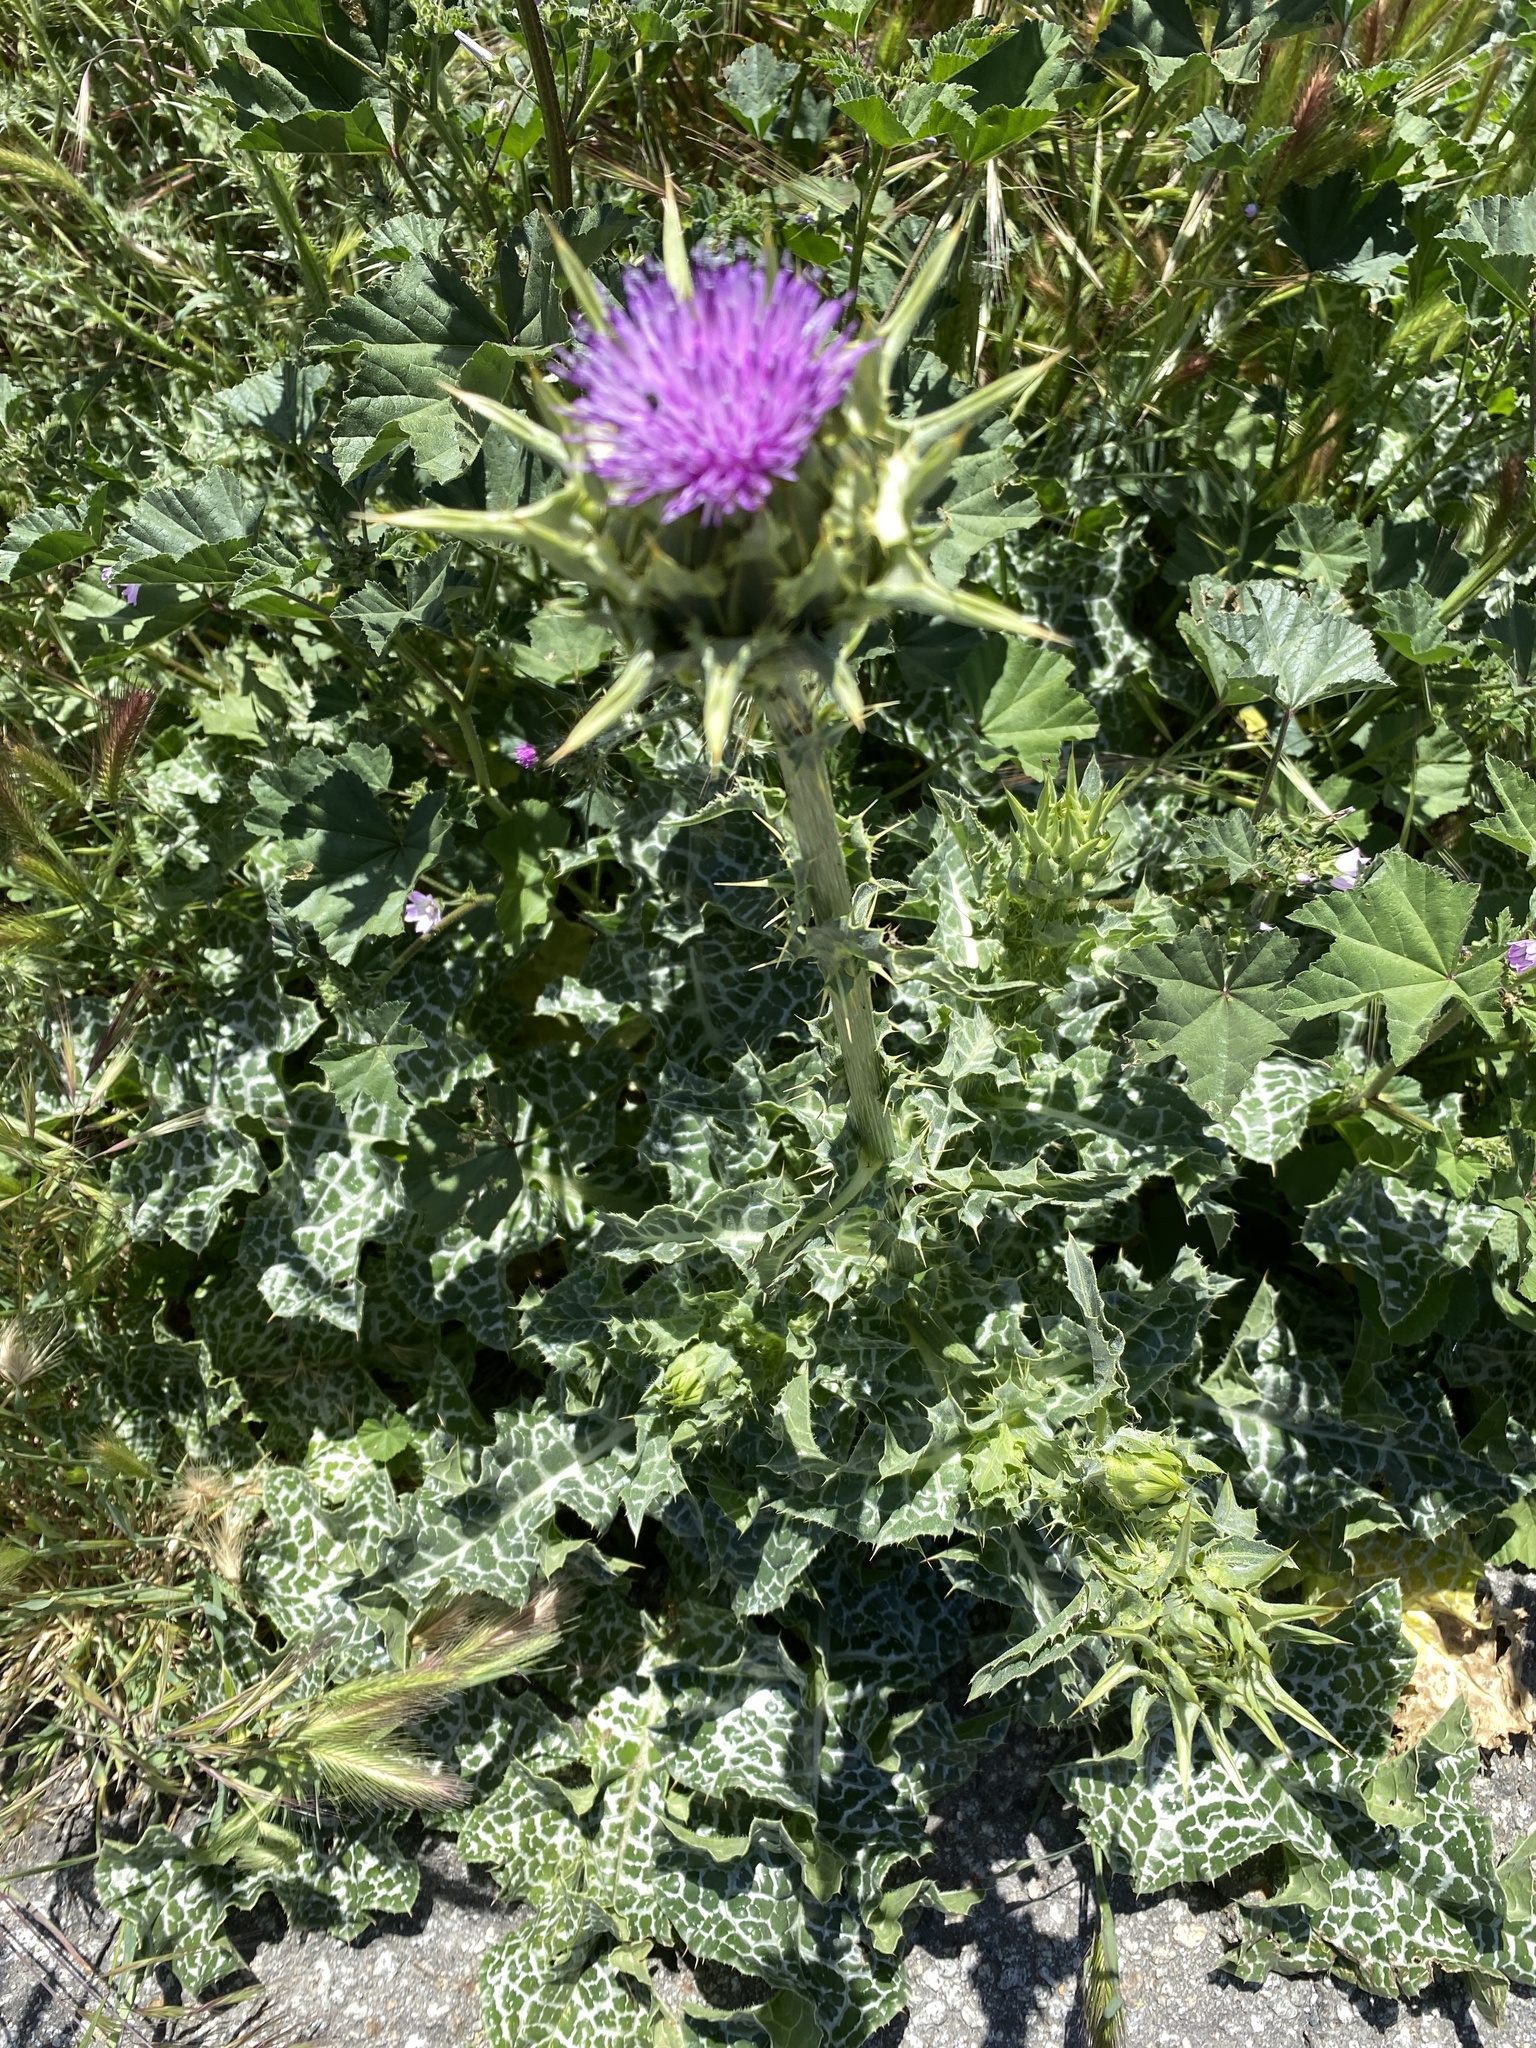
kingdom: Plantae
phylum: Tracheophyta
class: Magnoliopsida
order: Asterales
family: Asteraceae
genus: Silybum
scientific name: Silybum marianum
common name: Milk thistle
